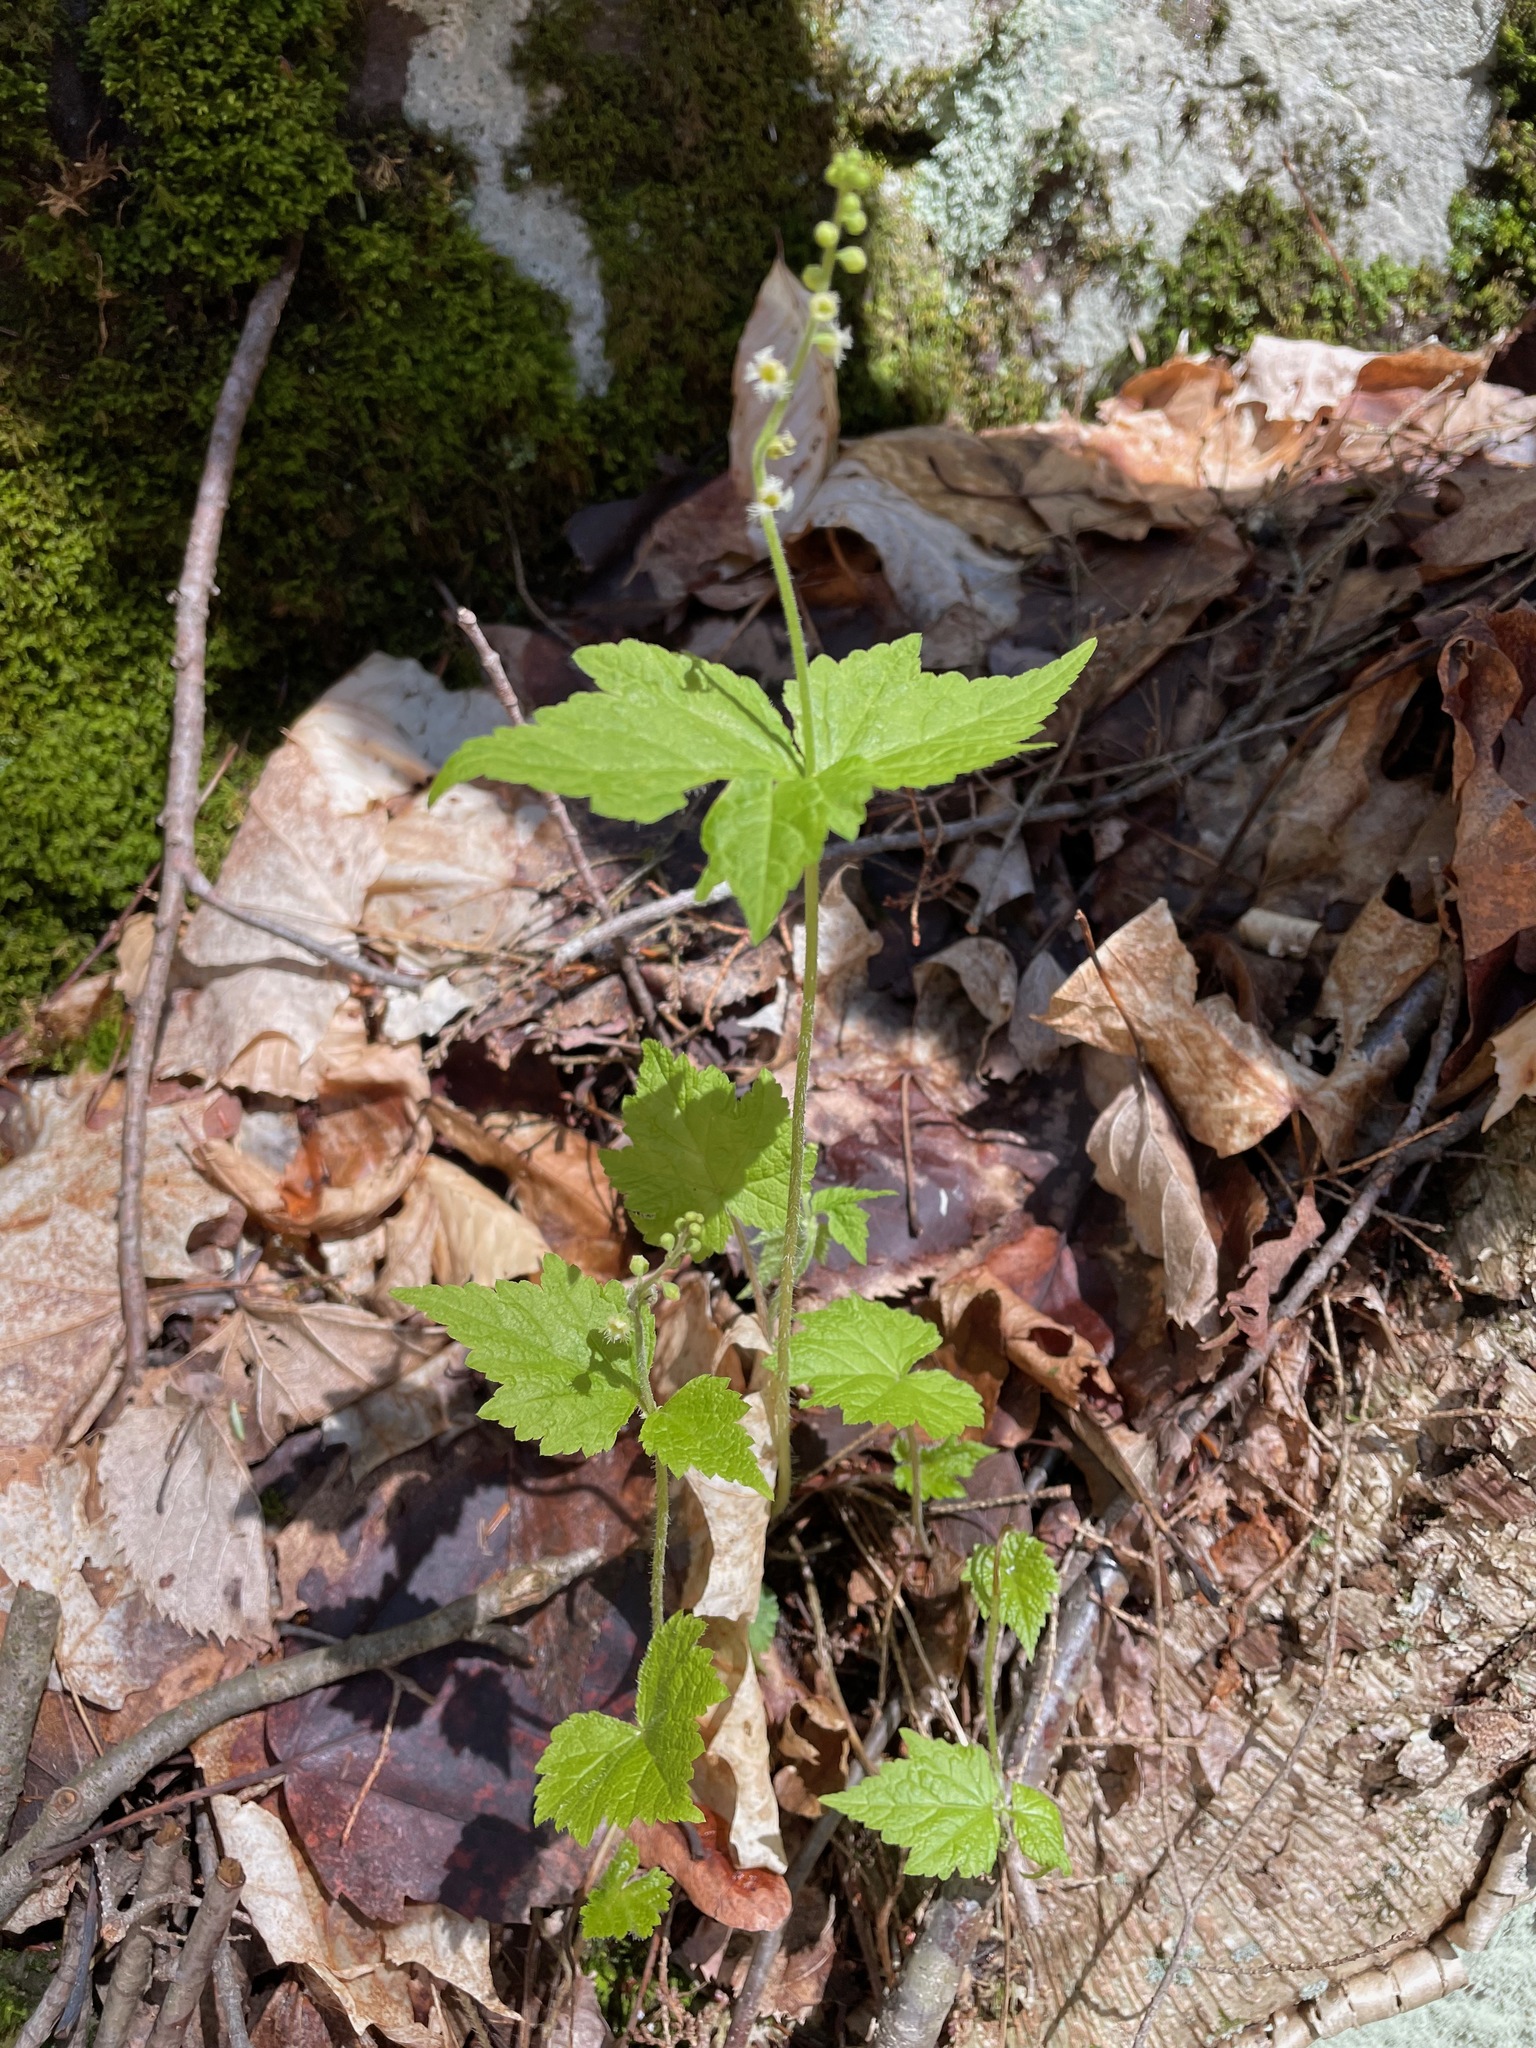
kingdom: Plantae
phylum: Tracheophyta
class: Magnoliopsida
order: Saxifragales
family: Saxifragaceae
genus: Mitella
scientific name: Mitella diphylla
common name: Coolwort
